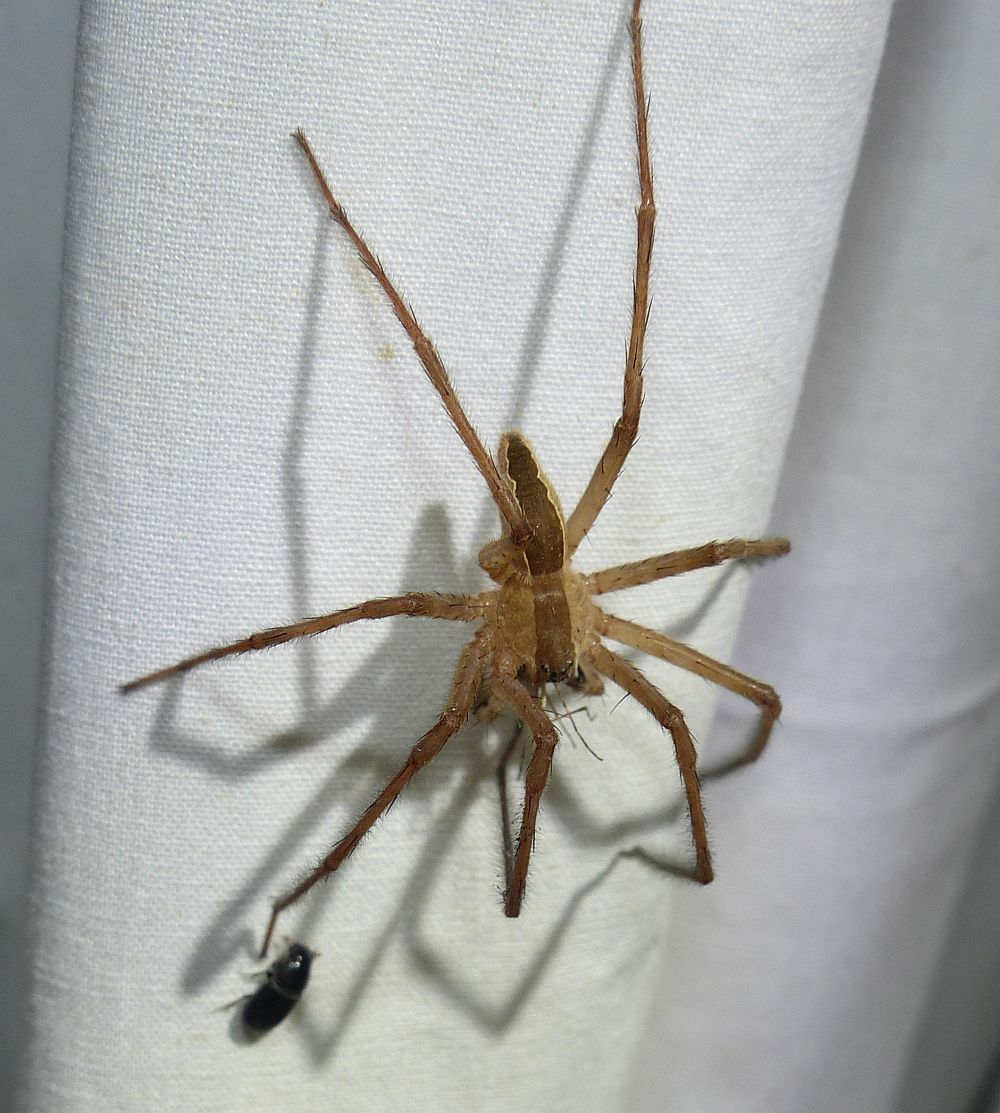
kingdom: Animalia
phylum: Arthropoda
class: Arachnida
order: Araneae
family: Pisauridae
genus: Pisaurina
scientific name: Pisaurina mira
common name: American nursery web spider
